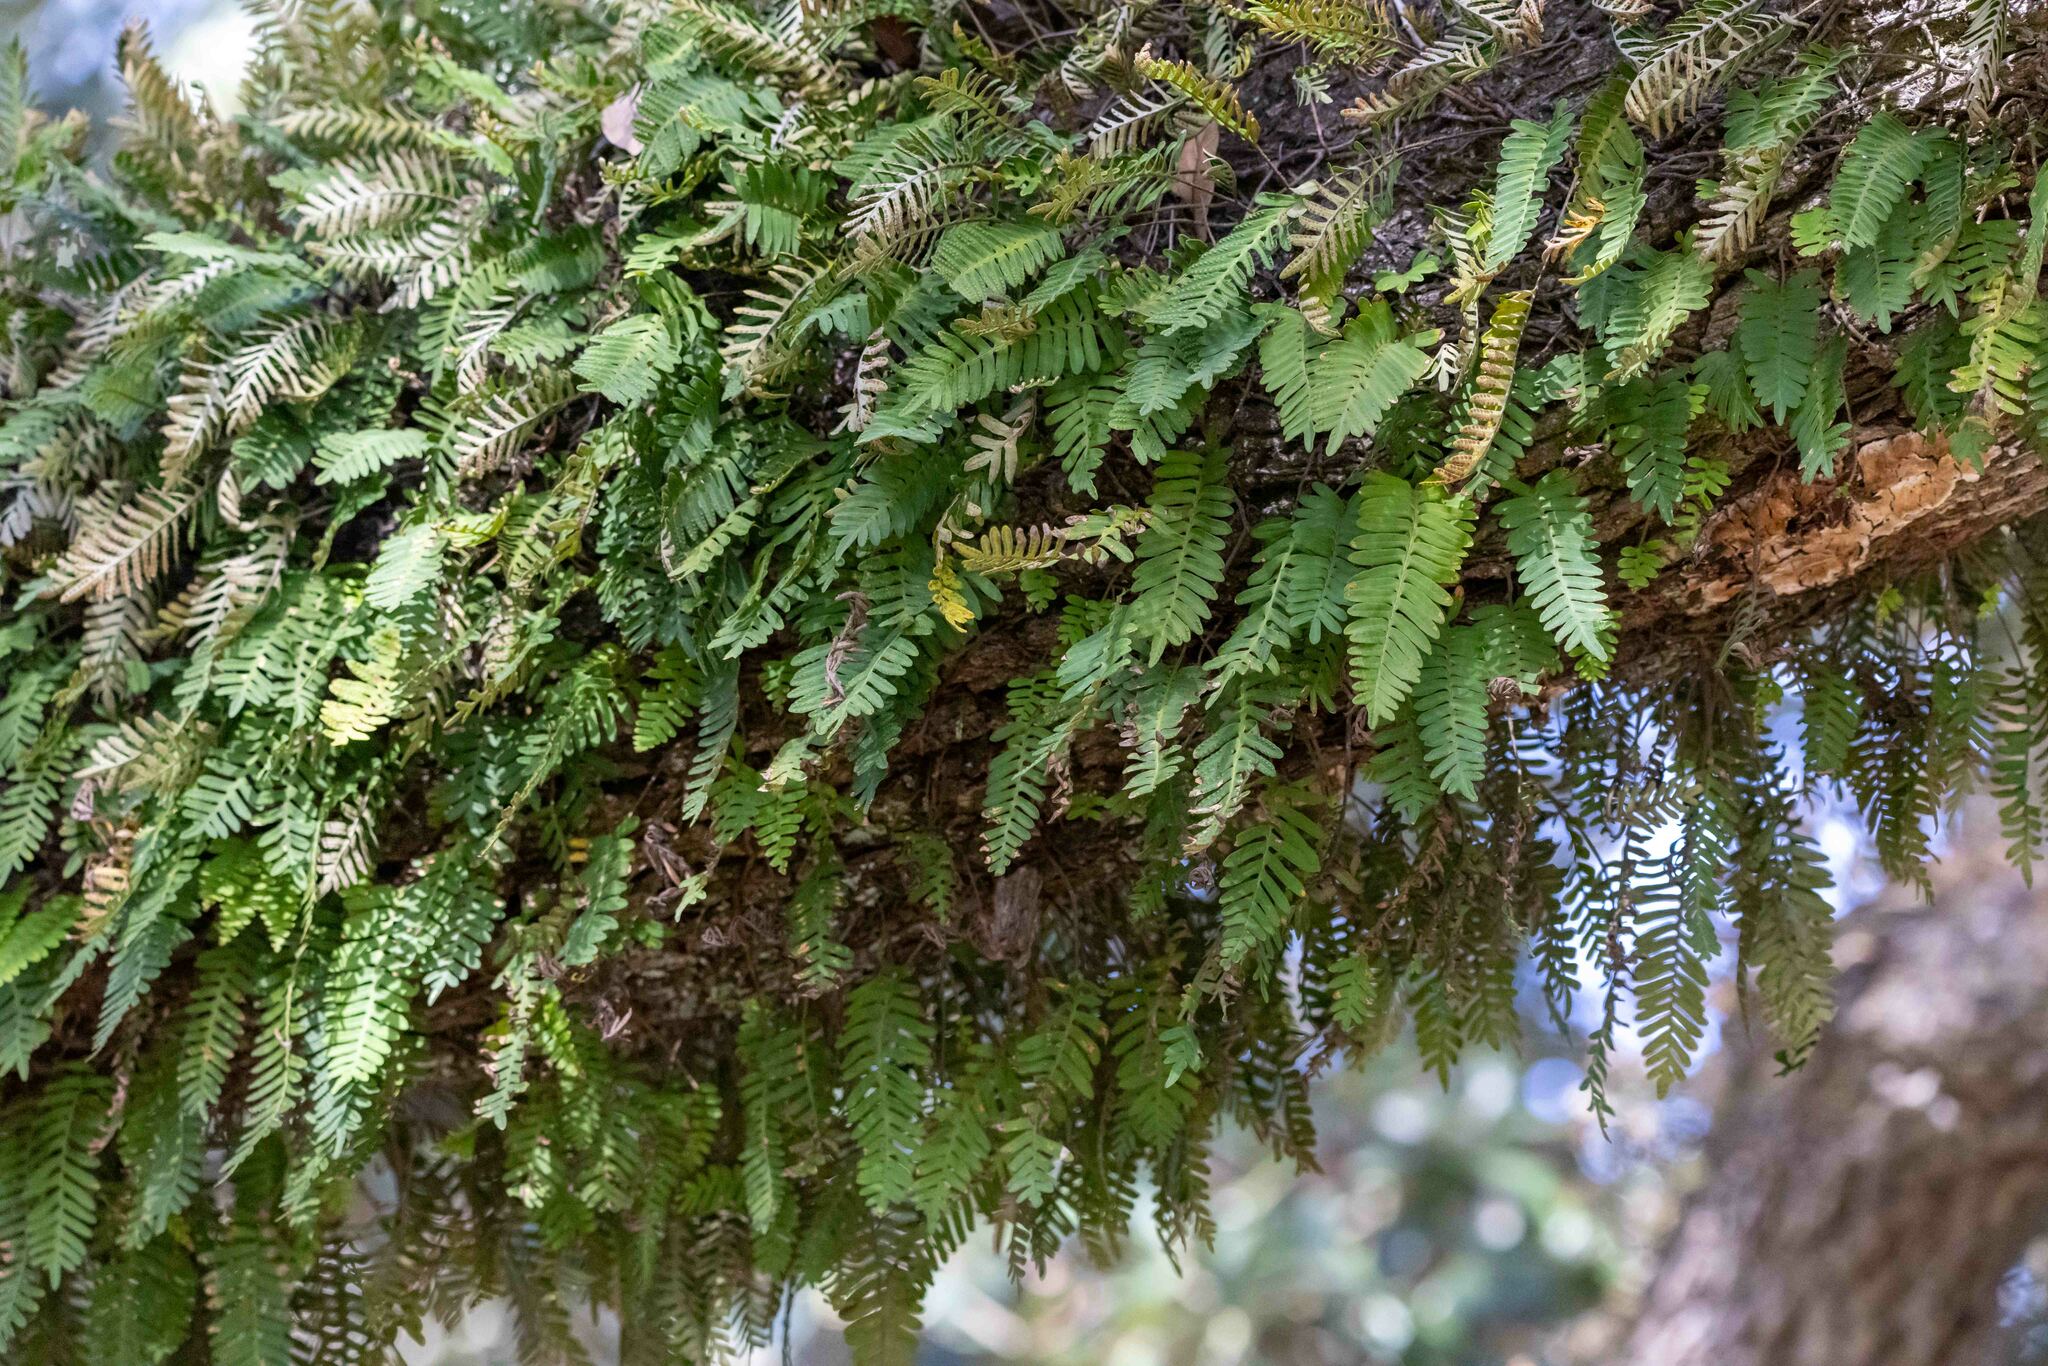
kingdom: Plantae
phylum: Tracheophyta
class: Polypodiopsida
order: Polypodiales
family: Polypodiaceae
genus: Pleopeltis
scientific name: Pleopeltis michauxiana
